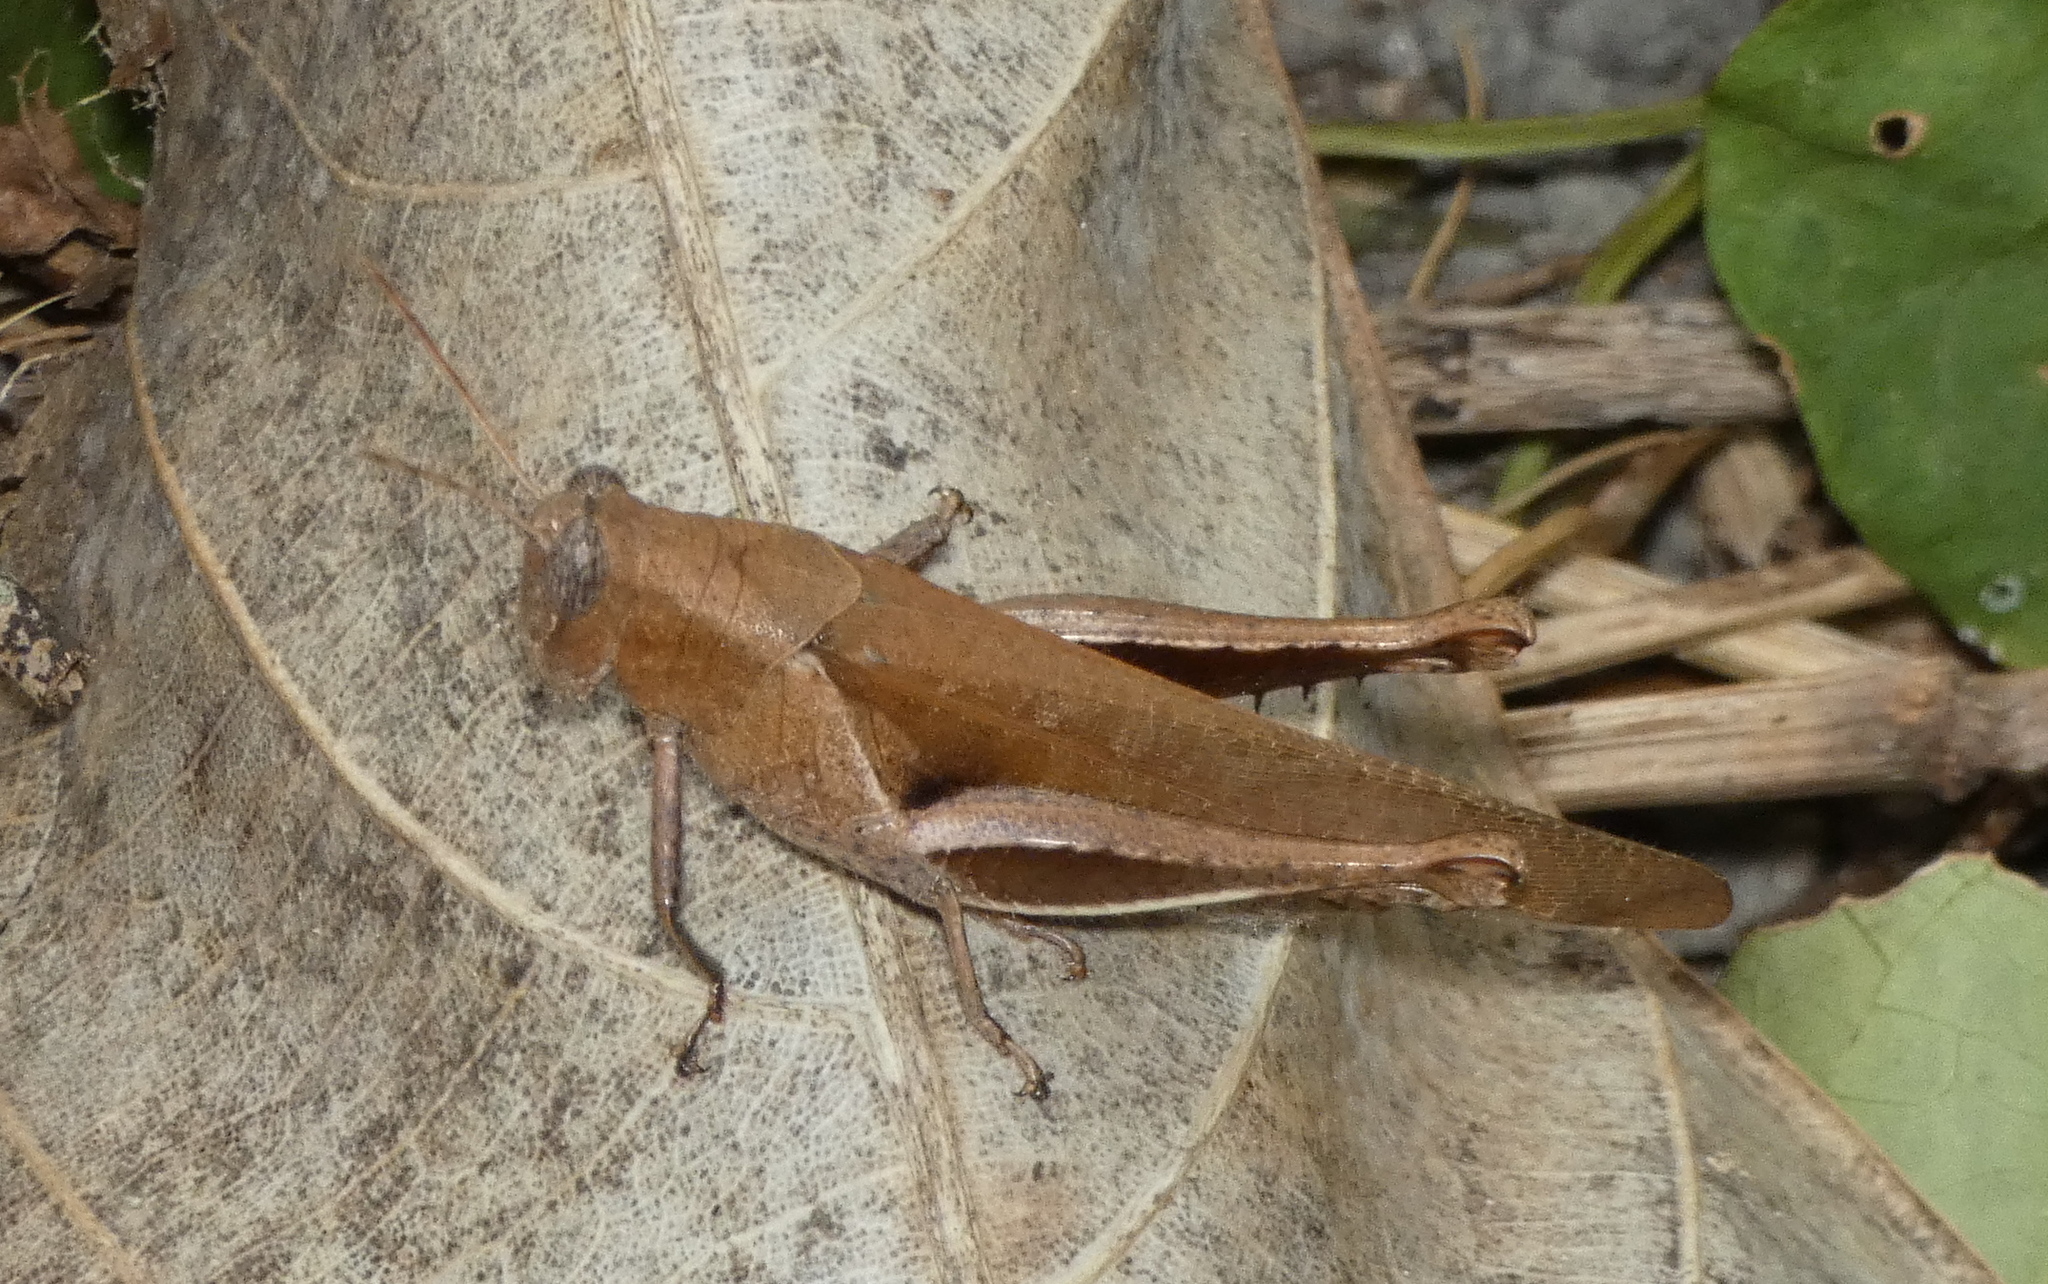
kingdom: Animalia
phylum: Arthropoda
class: Insecta
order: Orthoptera
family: Acrididae
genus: Abracris
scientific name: Abracris flavolineata
